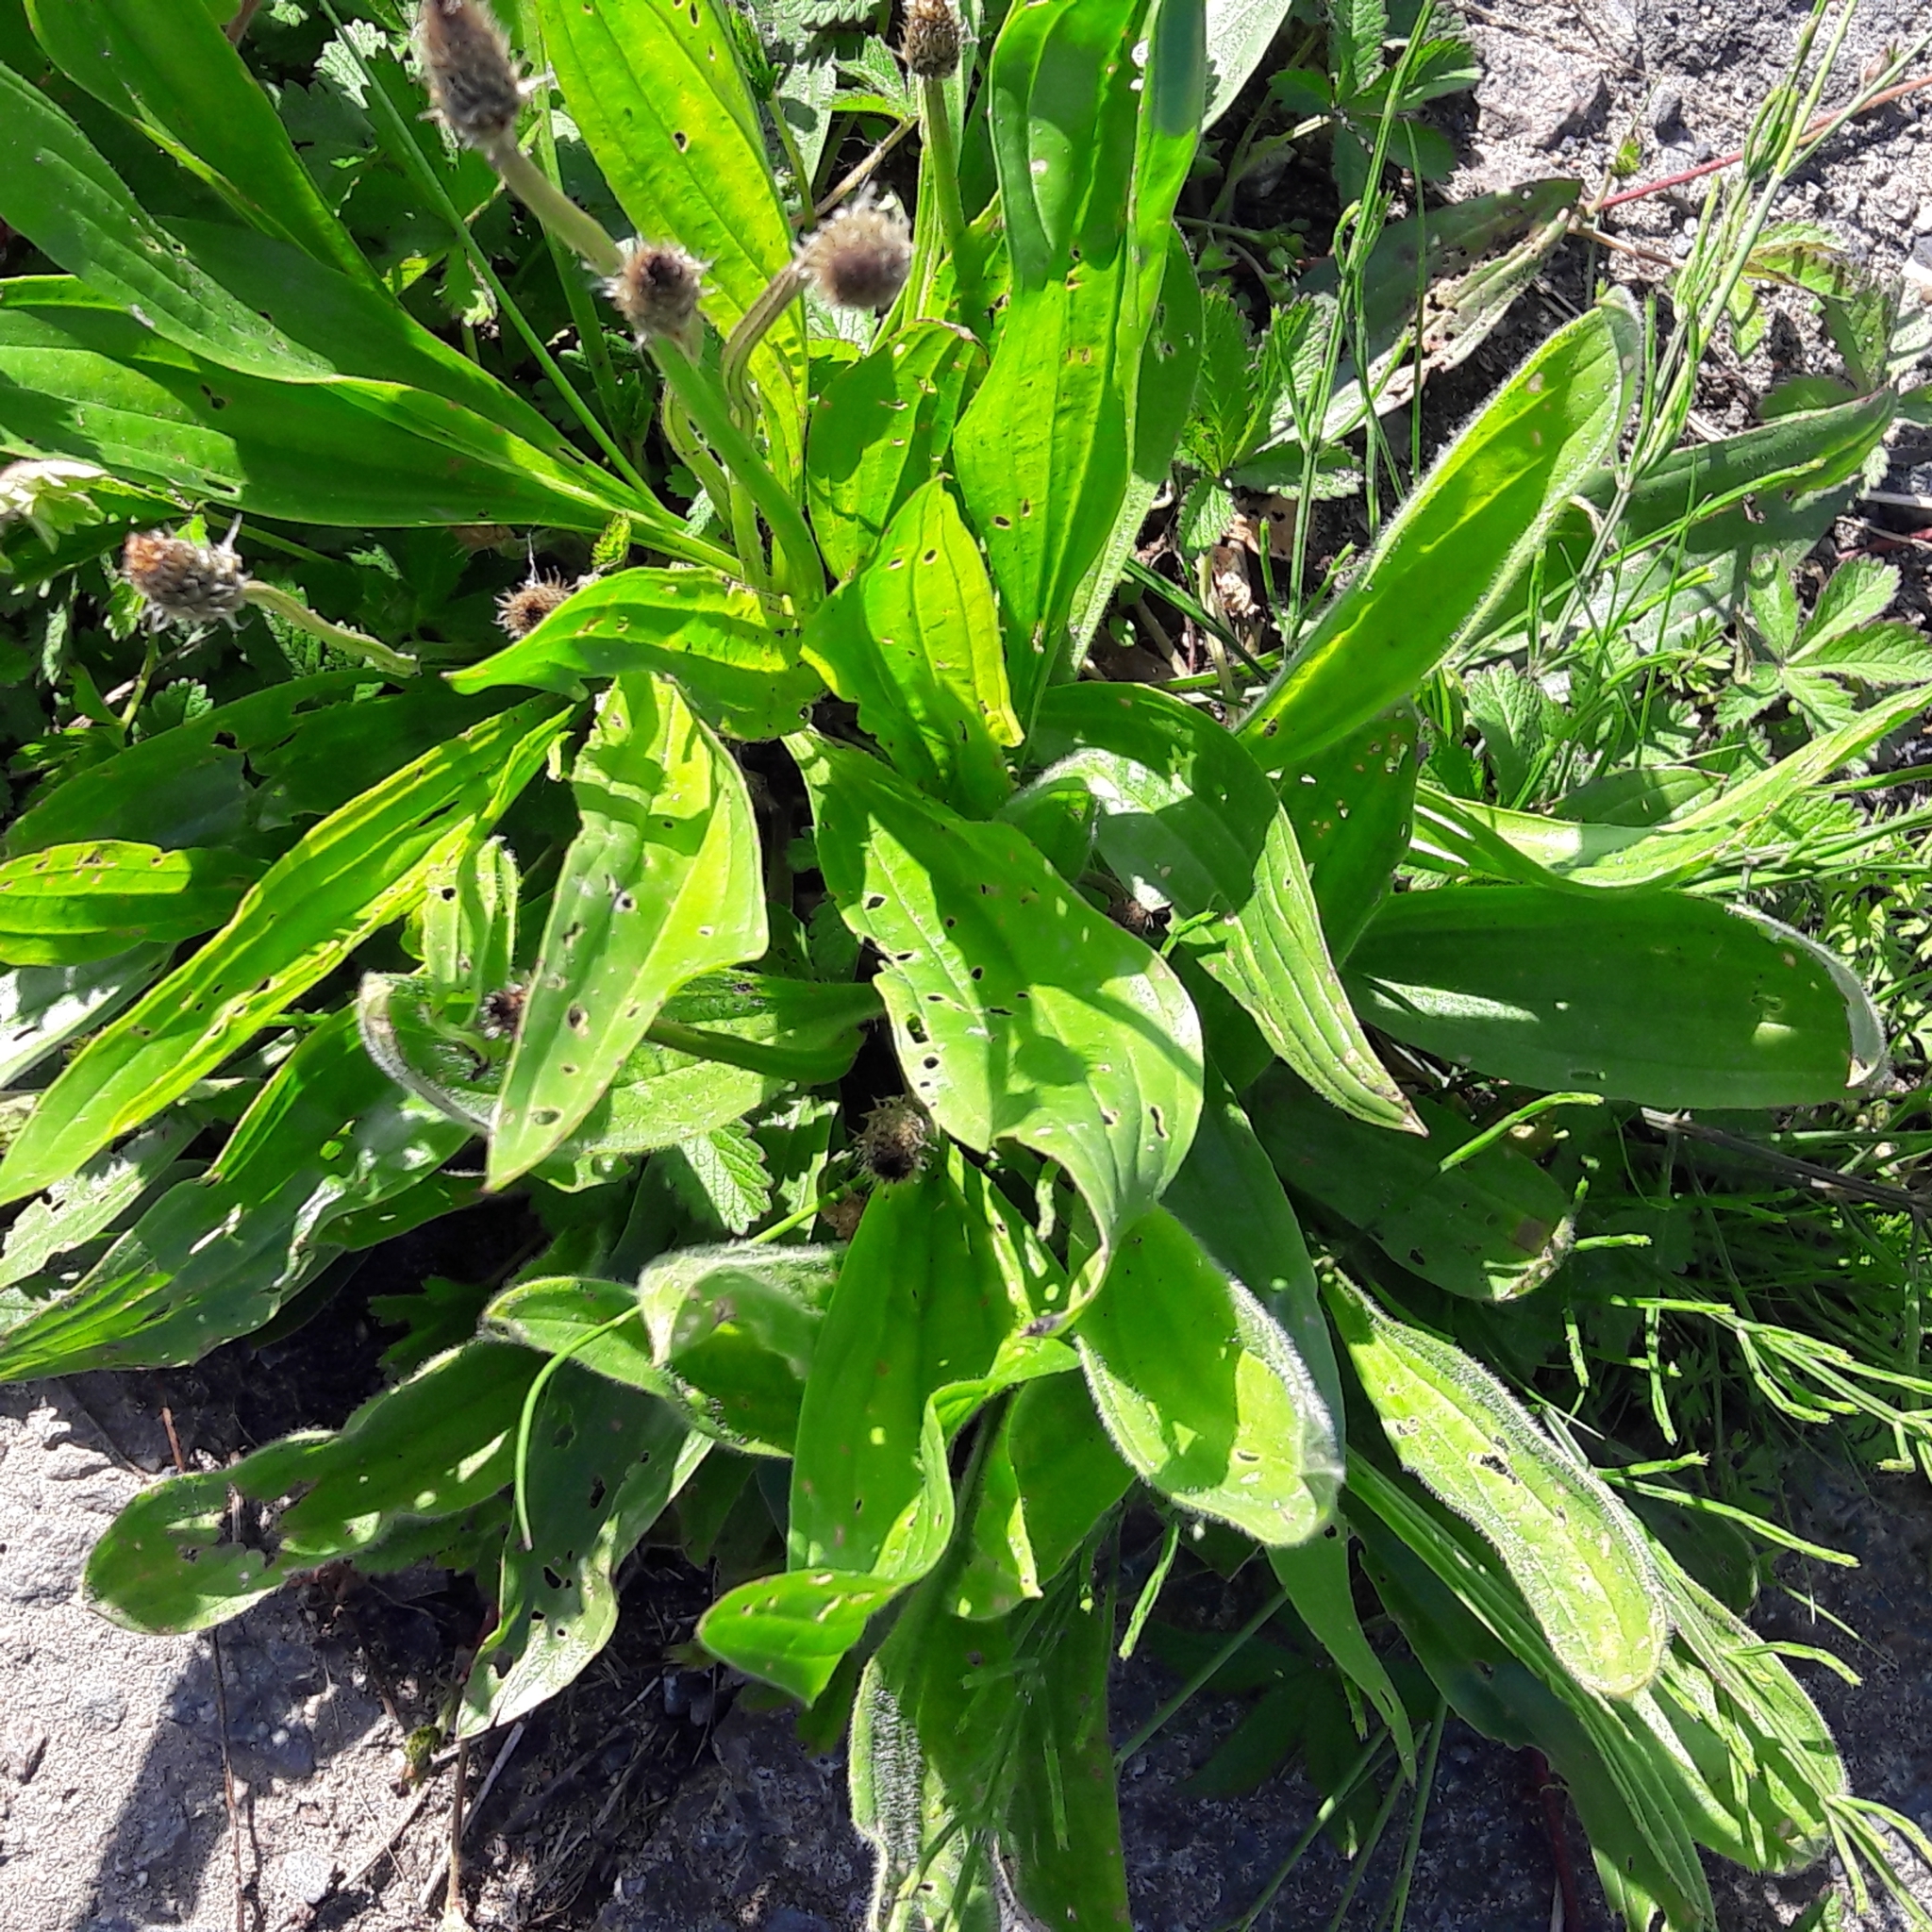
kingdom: Plantae
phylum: Tracheophyta
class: Magnoliopsida
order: Lamiales
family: Plantaginaceae
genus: Plantago
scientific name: Plantago lanceolata
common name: Ribwort plantain
